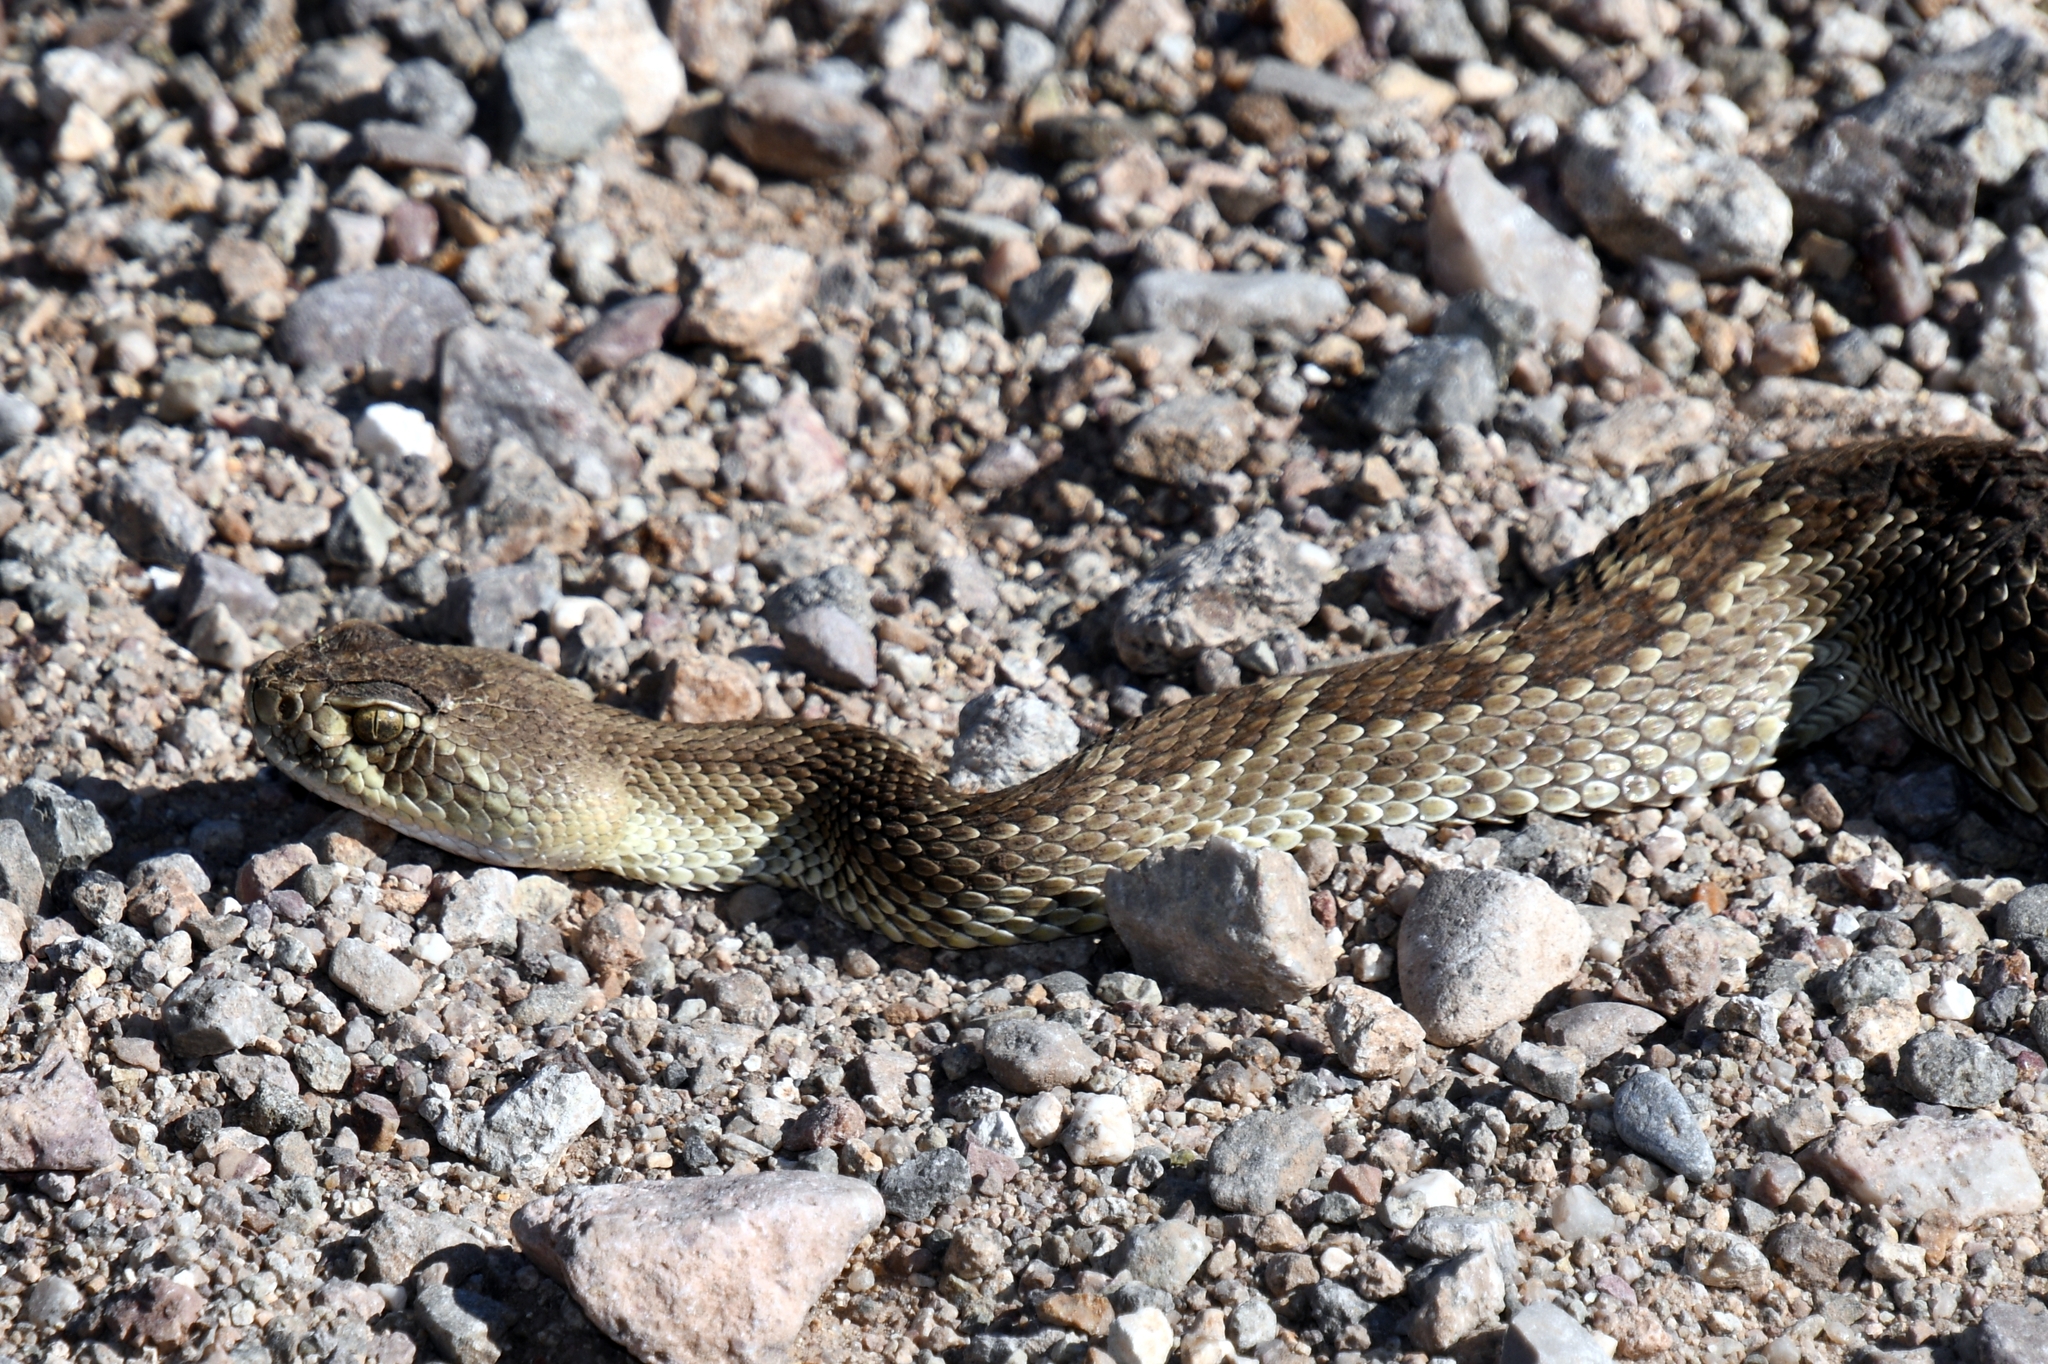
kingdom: Animalia
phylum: Chordata
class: Squamata
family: Viperidae
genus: Crotalus
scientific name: Crotalus scutulatus
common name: Scutulatus
